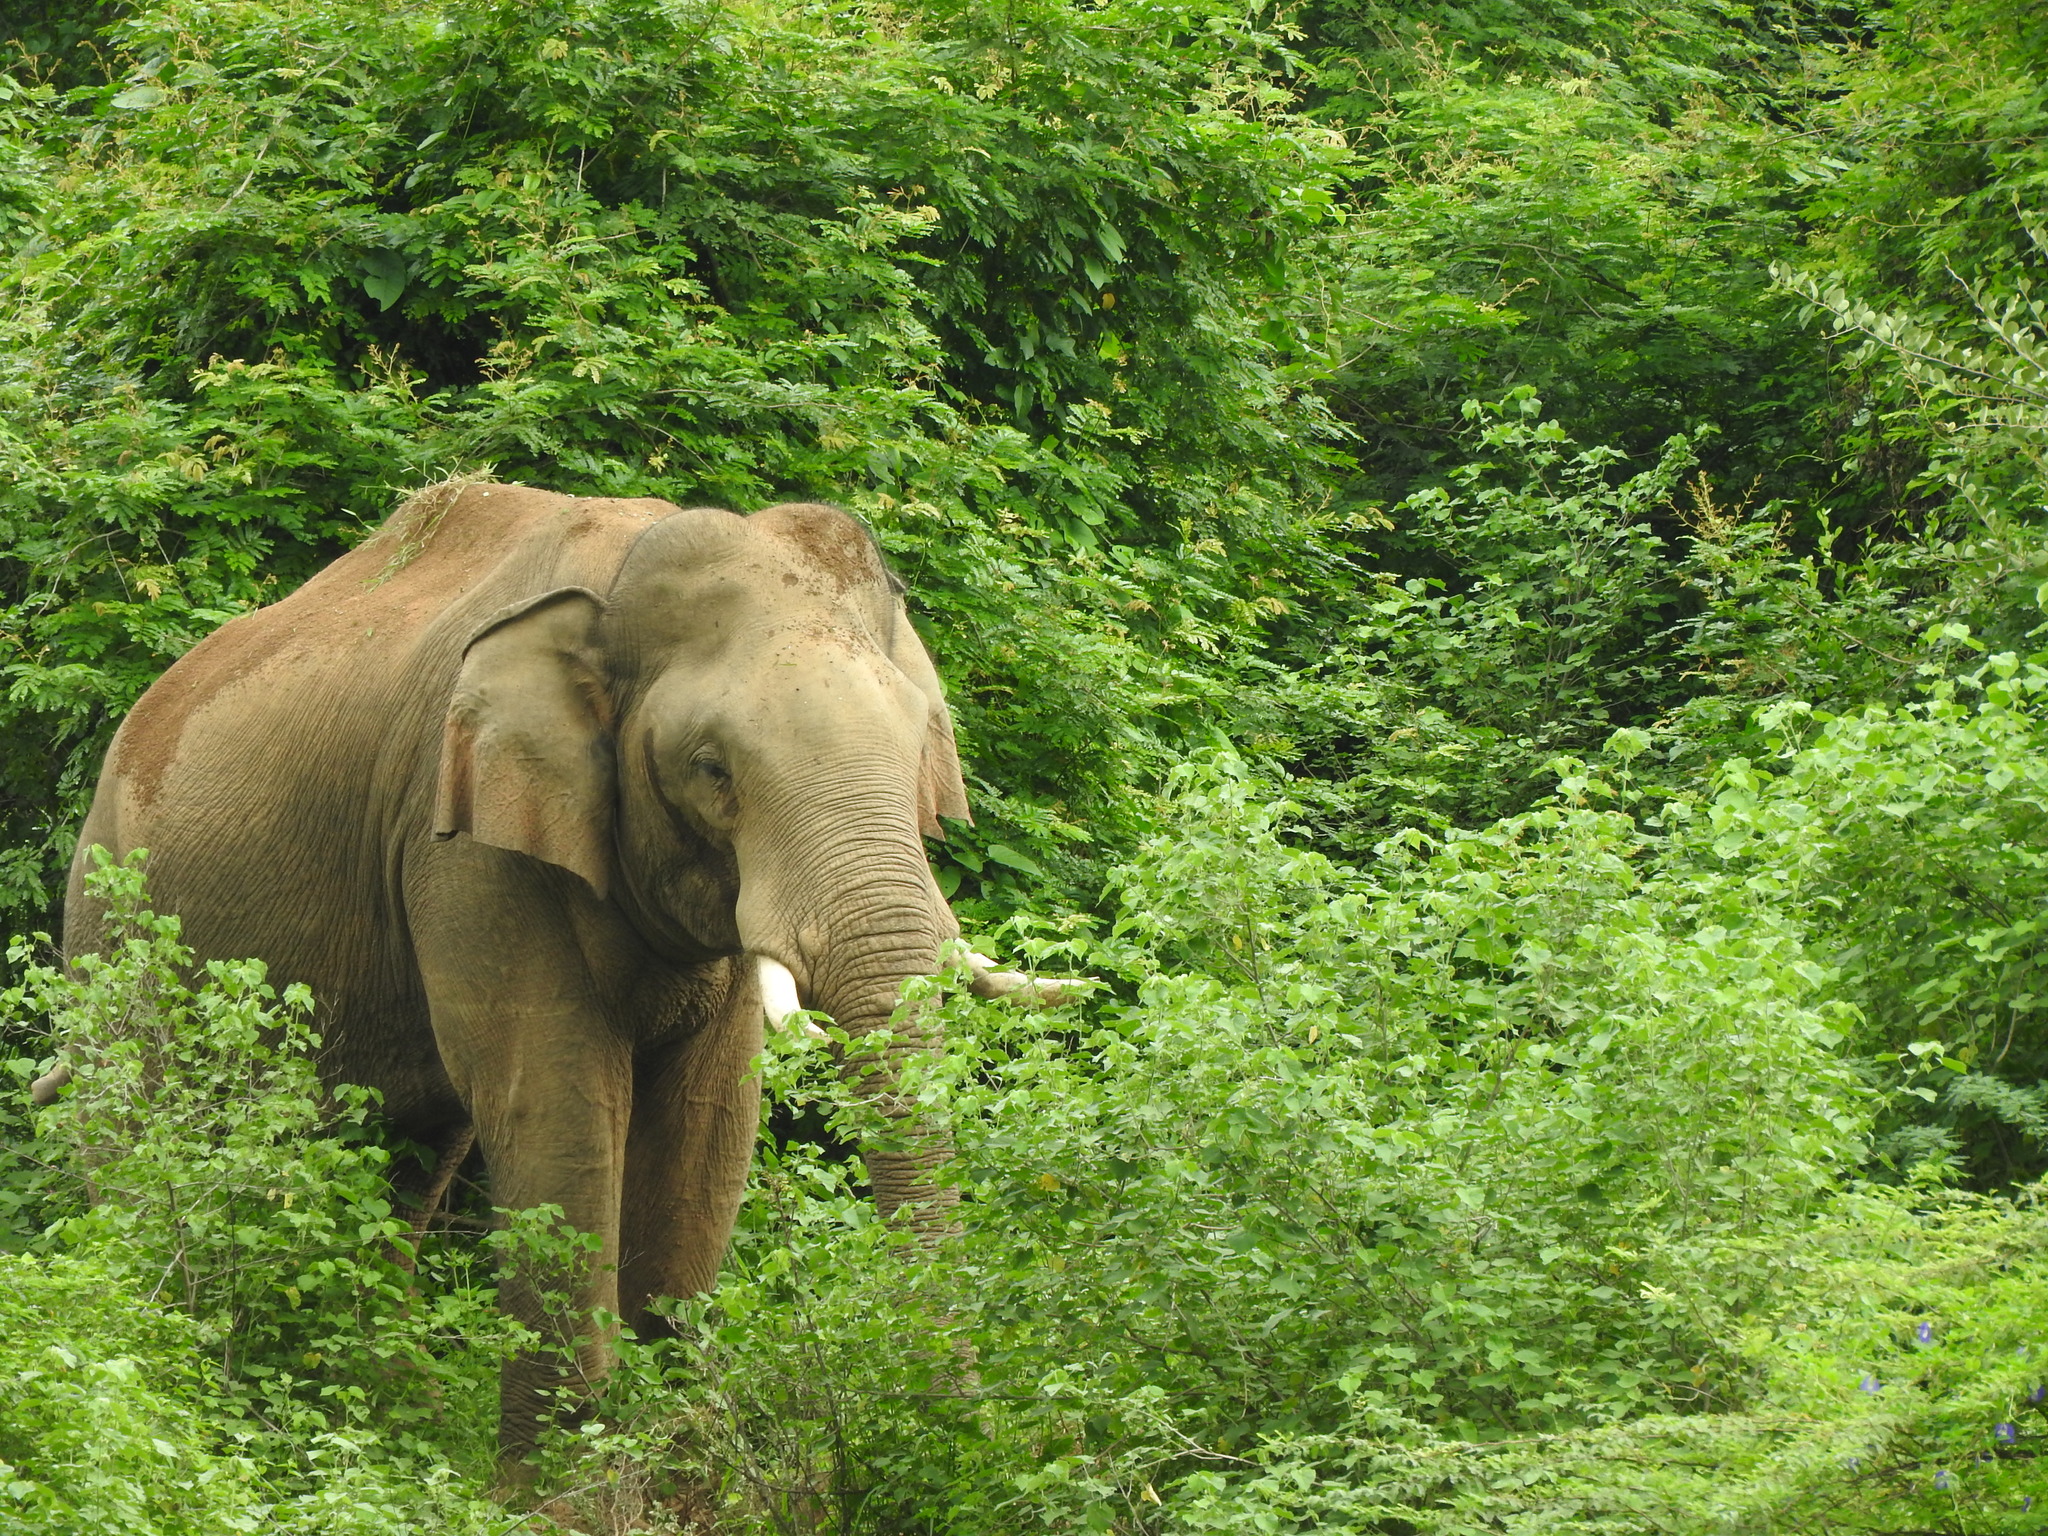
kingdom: Animalia
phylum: Chordata
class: Mammalia
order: Proboscidea
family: Elephantidae
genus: Elephas
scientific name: Elephas maximus
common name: Asian elephant
